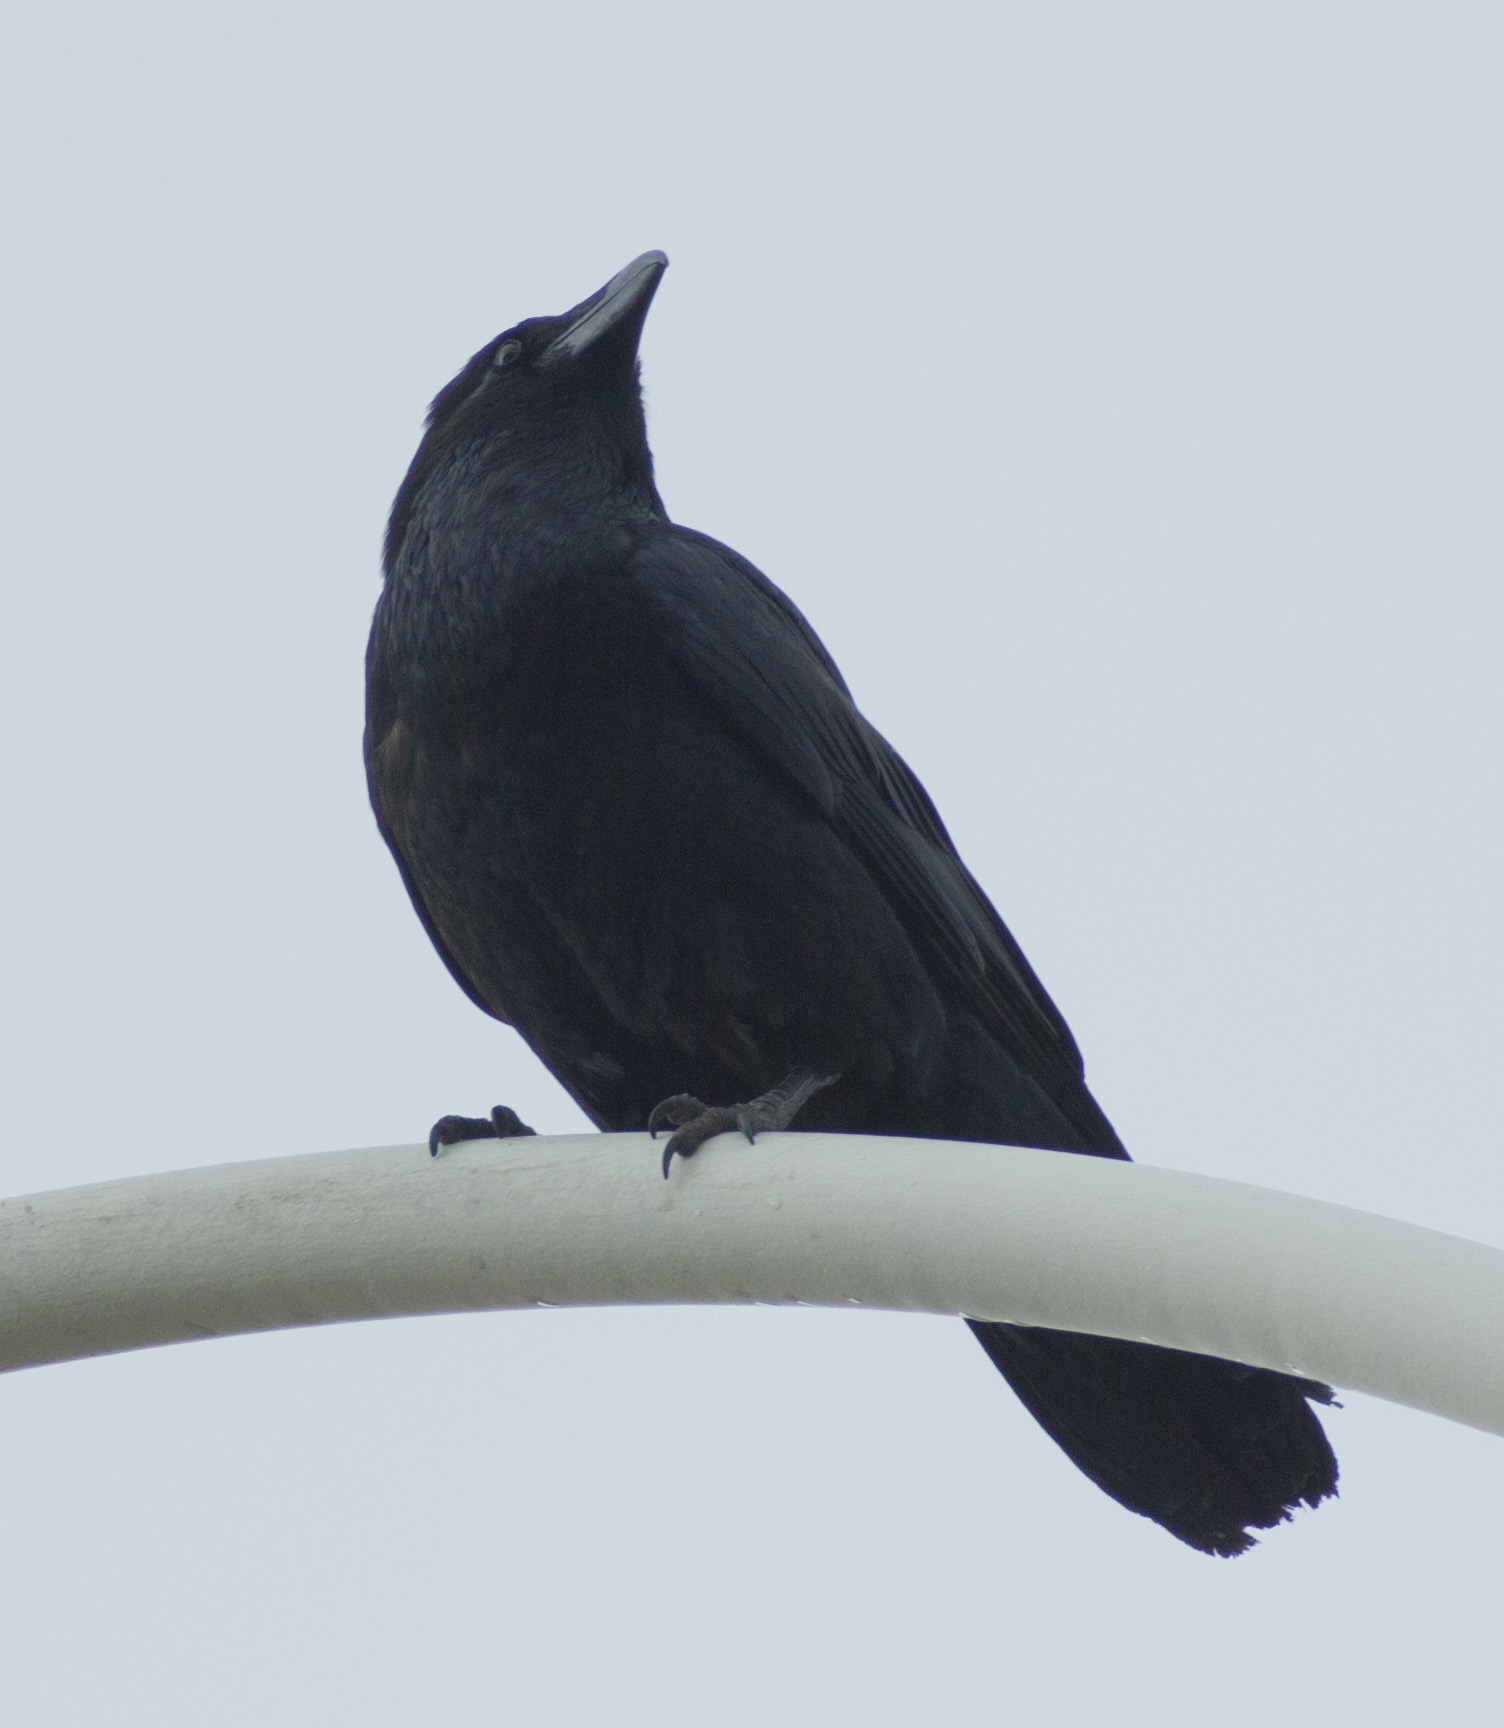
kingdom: Animalia
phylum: Chordata
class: Aves
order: Passeriformes
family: Corvidae
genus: Corvus
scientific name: Corvus corax
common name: Common raven
